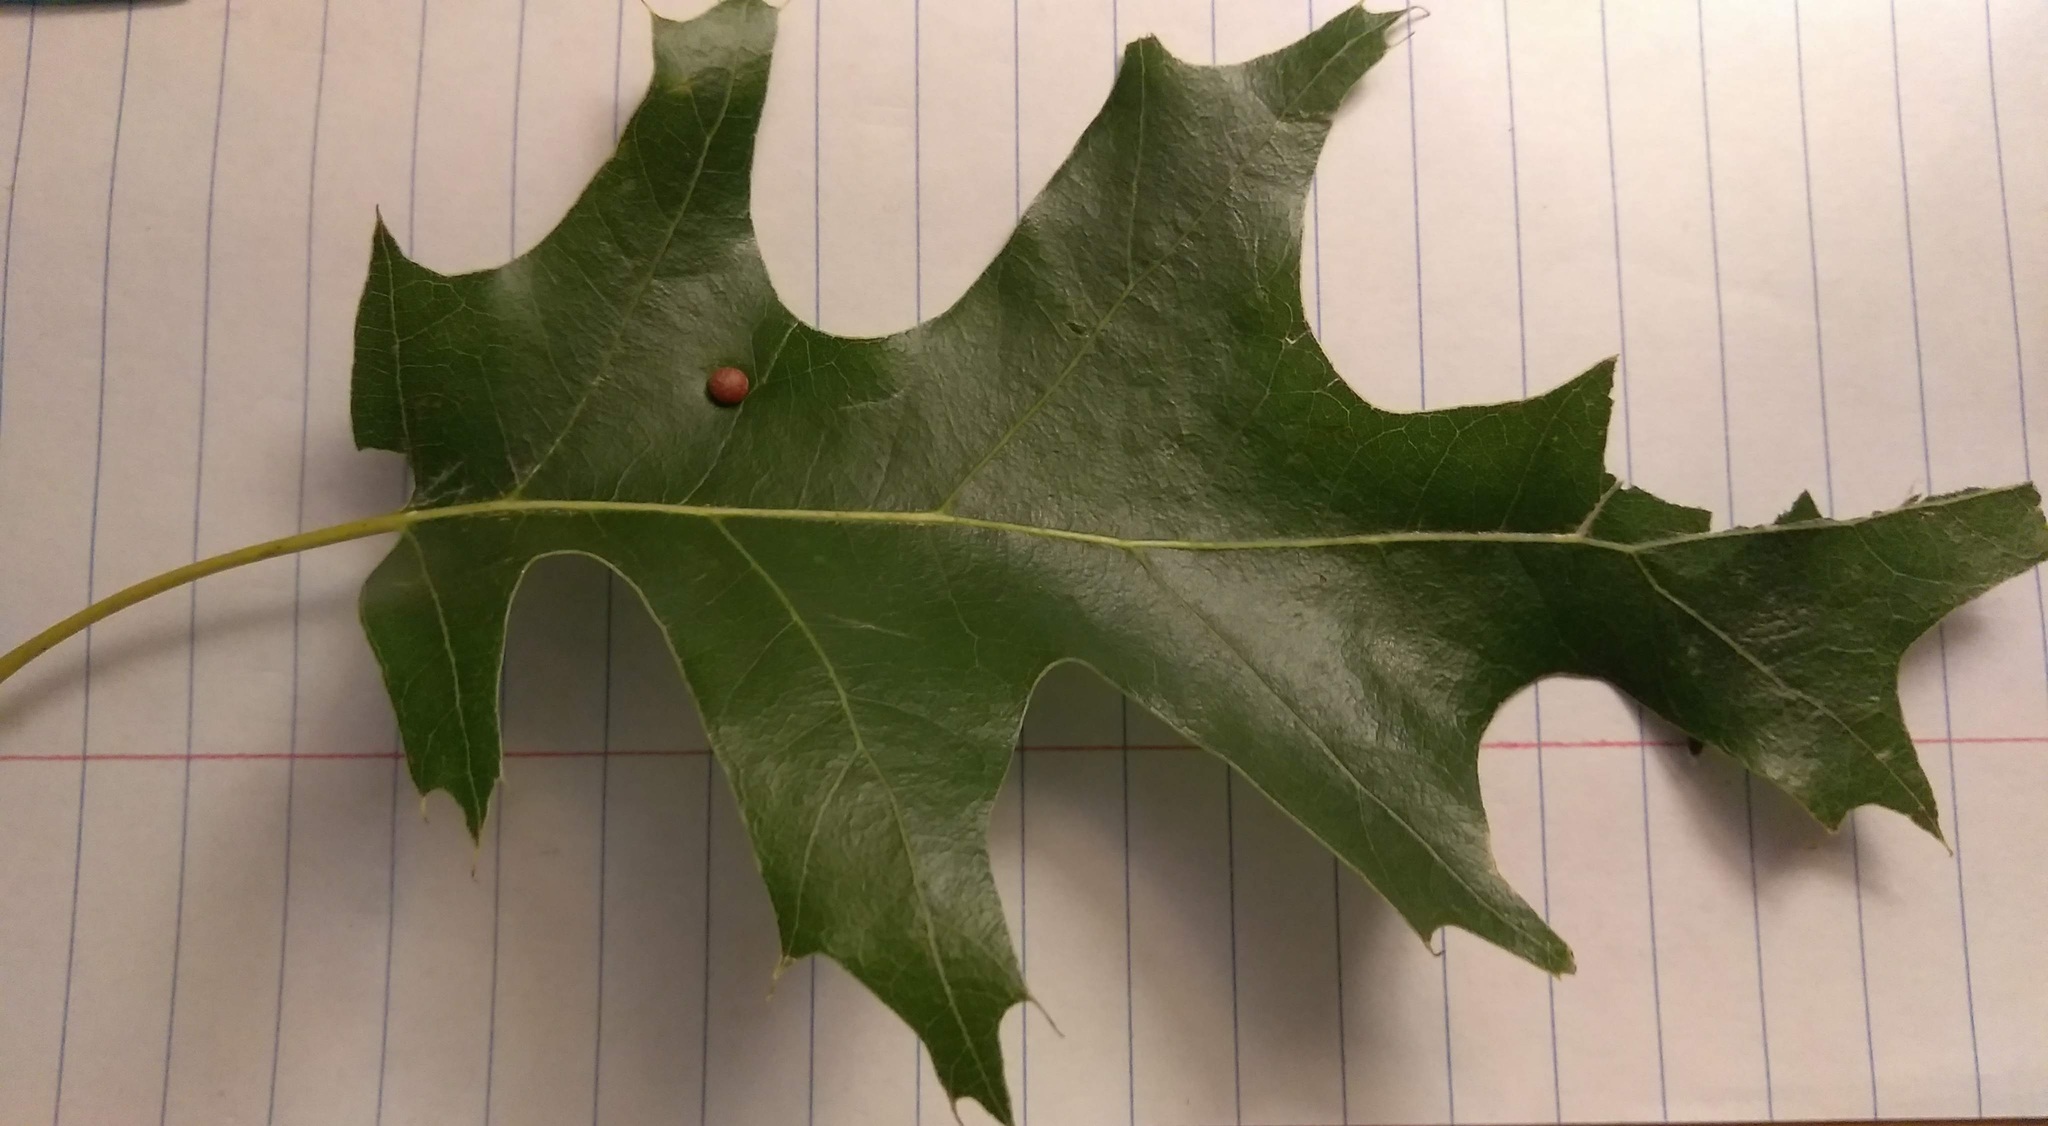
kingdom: Animalia
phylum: Arthropoda
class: Insecta
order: Diptera
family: Cecidomyiidae
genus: Polystepha
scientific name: Polystepha pilulae
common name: Oak leaf gall midge
